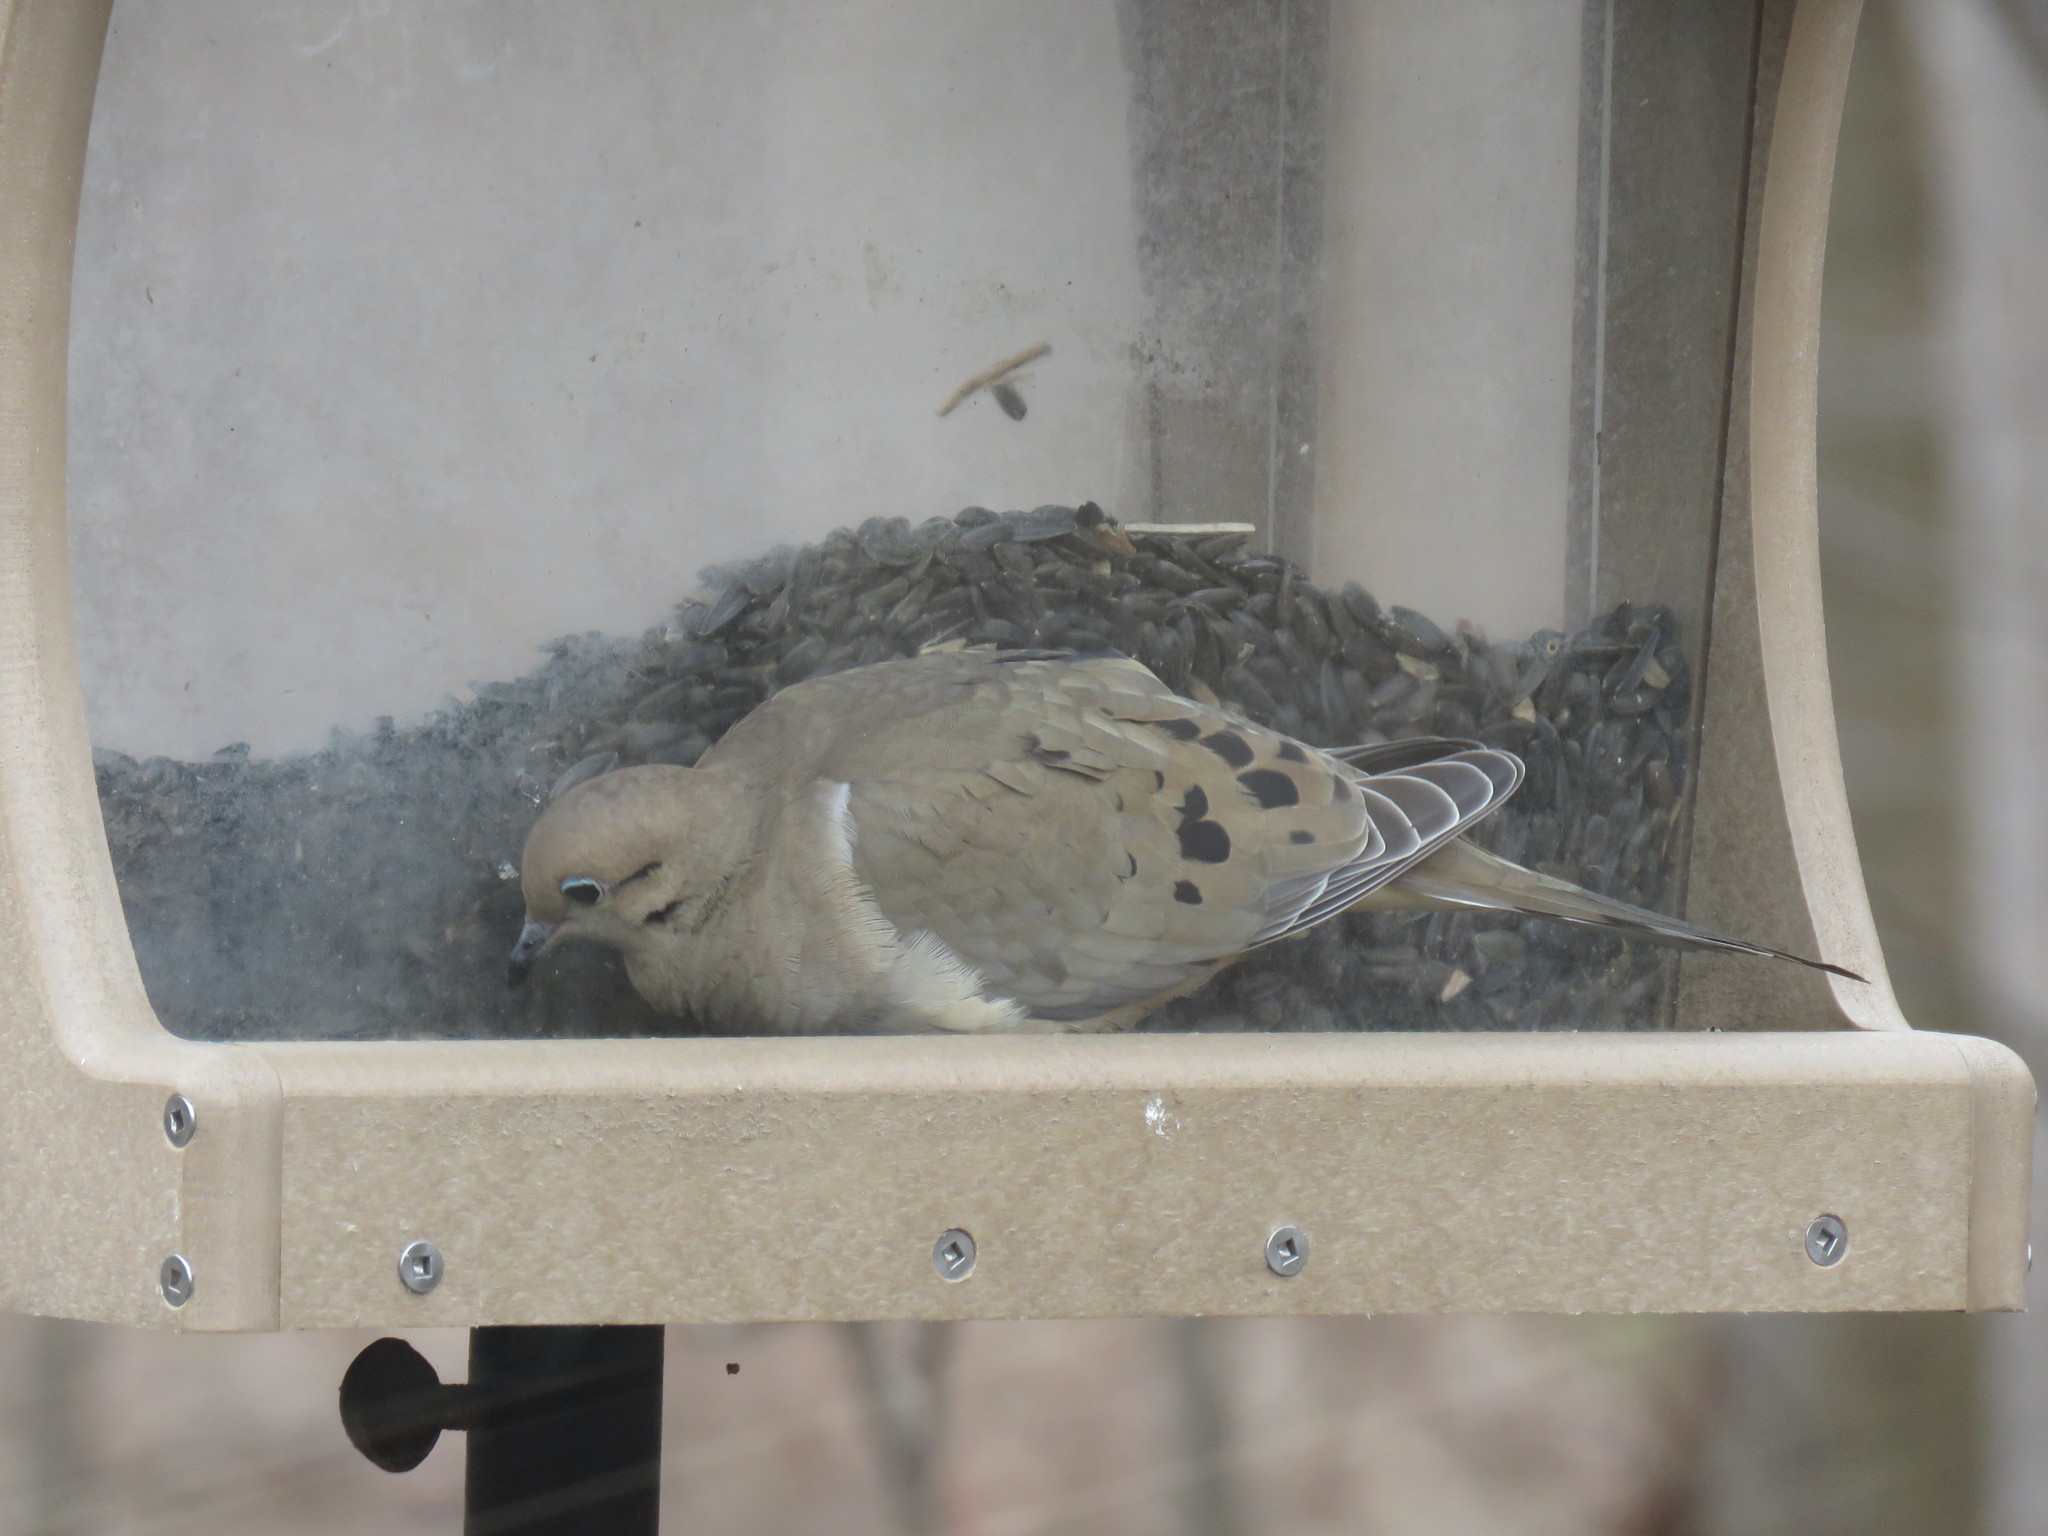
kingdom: Animalia
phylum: Chordata
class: Aves
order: Columbiformes
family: Columbidae
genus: Zenaida
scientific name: Zenaida macroura
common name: Mourning dove
